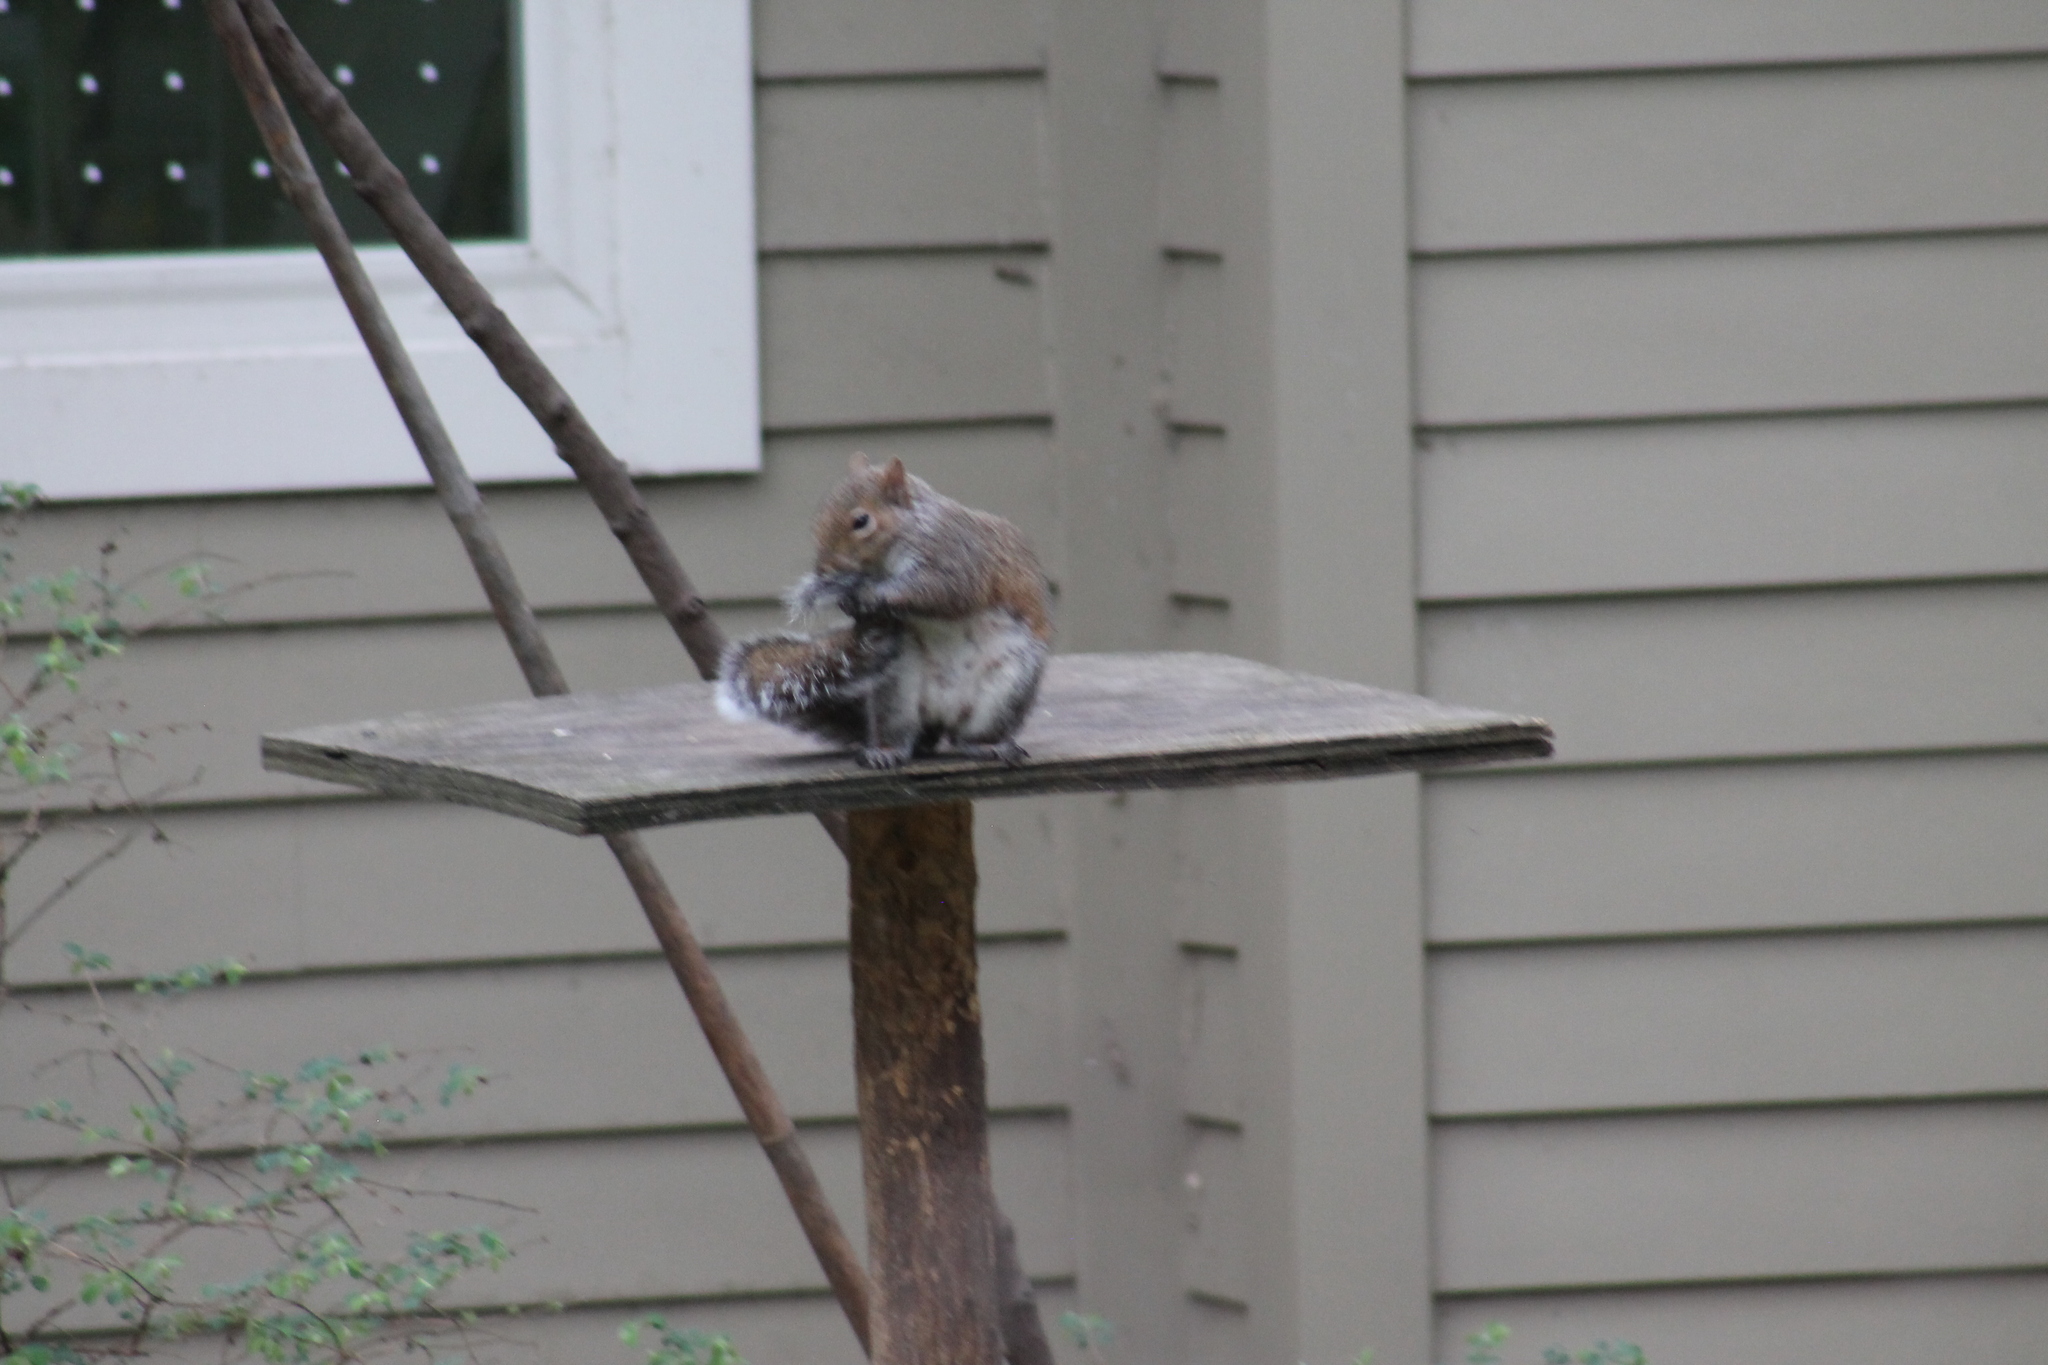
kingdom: Animalia
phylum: Chordata
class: Mammalia
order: Rodentia
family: Sciuridae
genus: Sciurus
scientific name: Sciurus carolinensis
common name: Eastern gray squirrel
